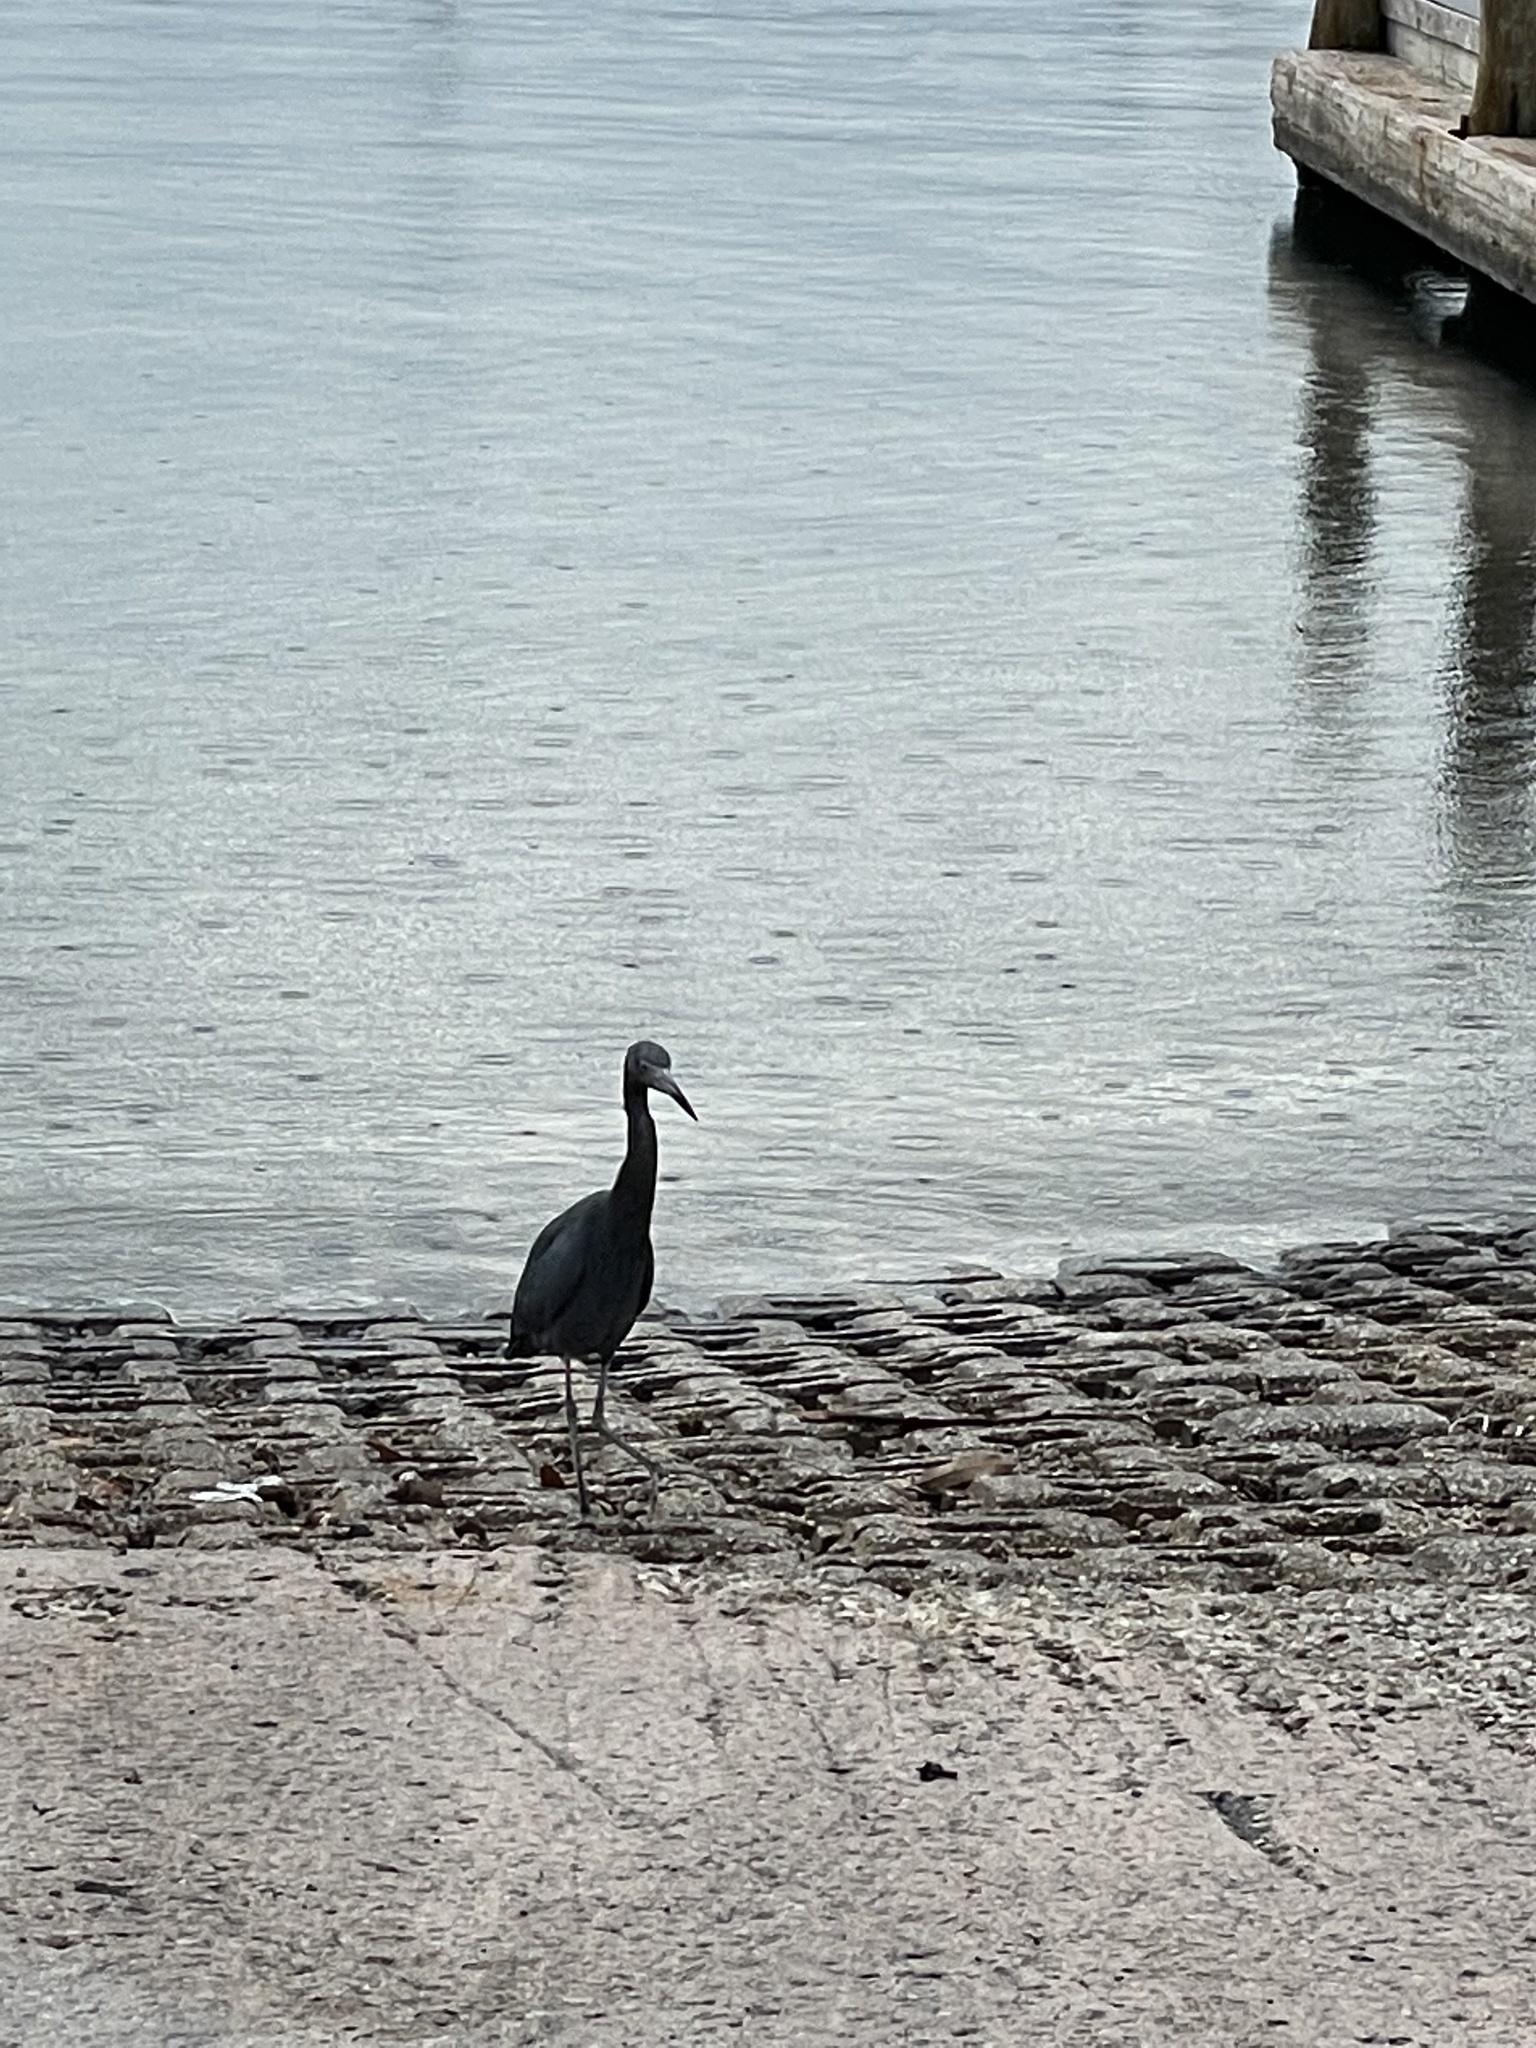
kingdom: Animalia
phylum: Chordata
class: Aves
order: Pelecaniformes
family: Ardeidae
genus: Egretta
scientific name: Egretta caerulea
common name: Little blue heron
